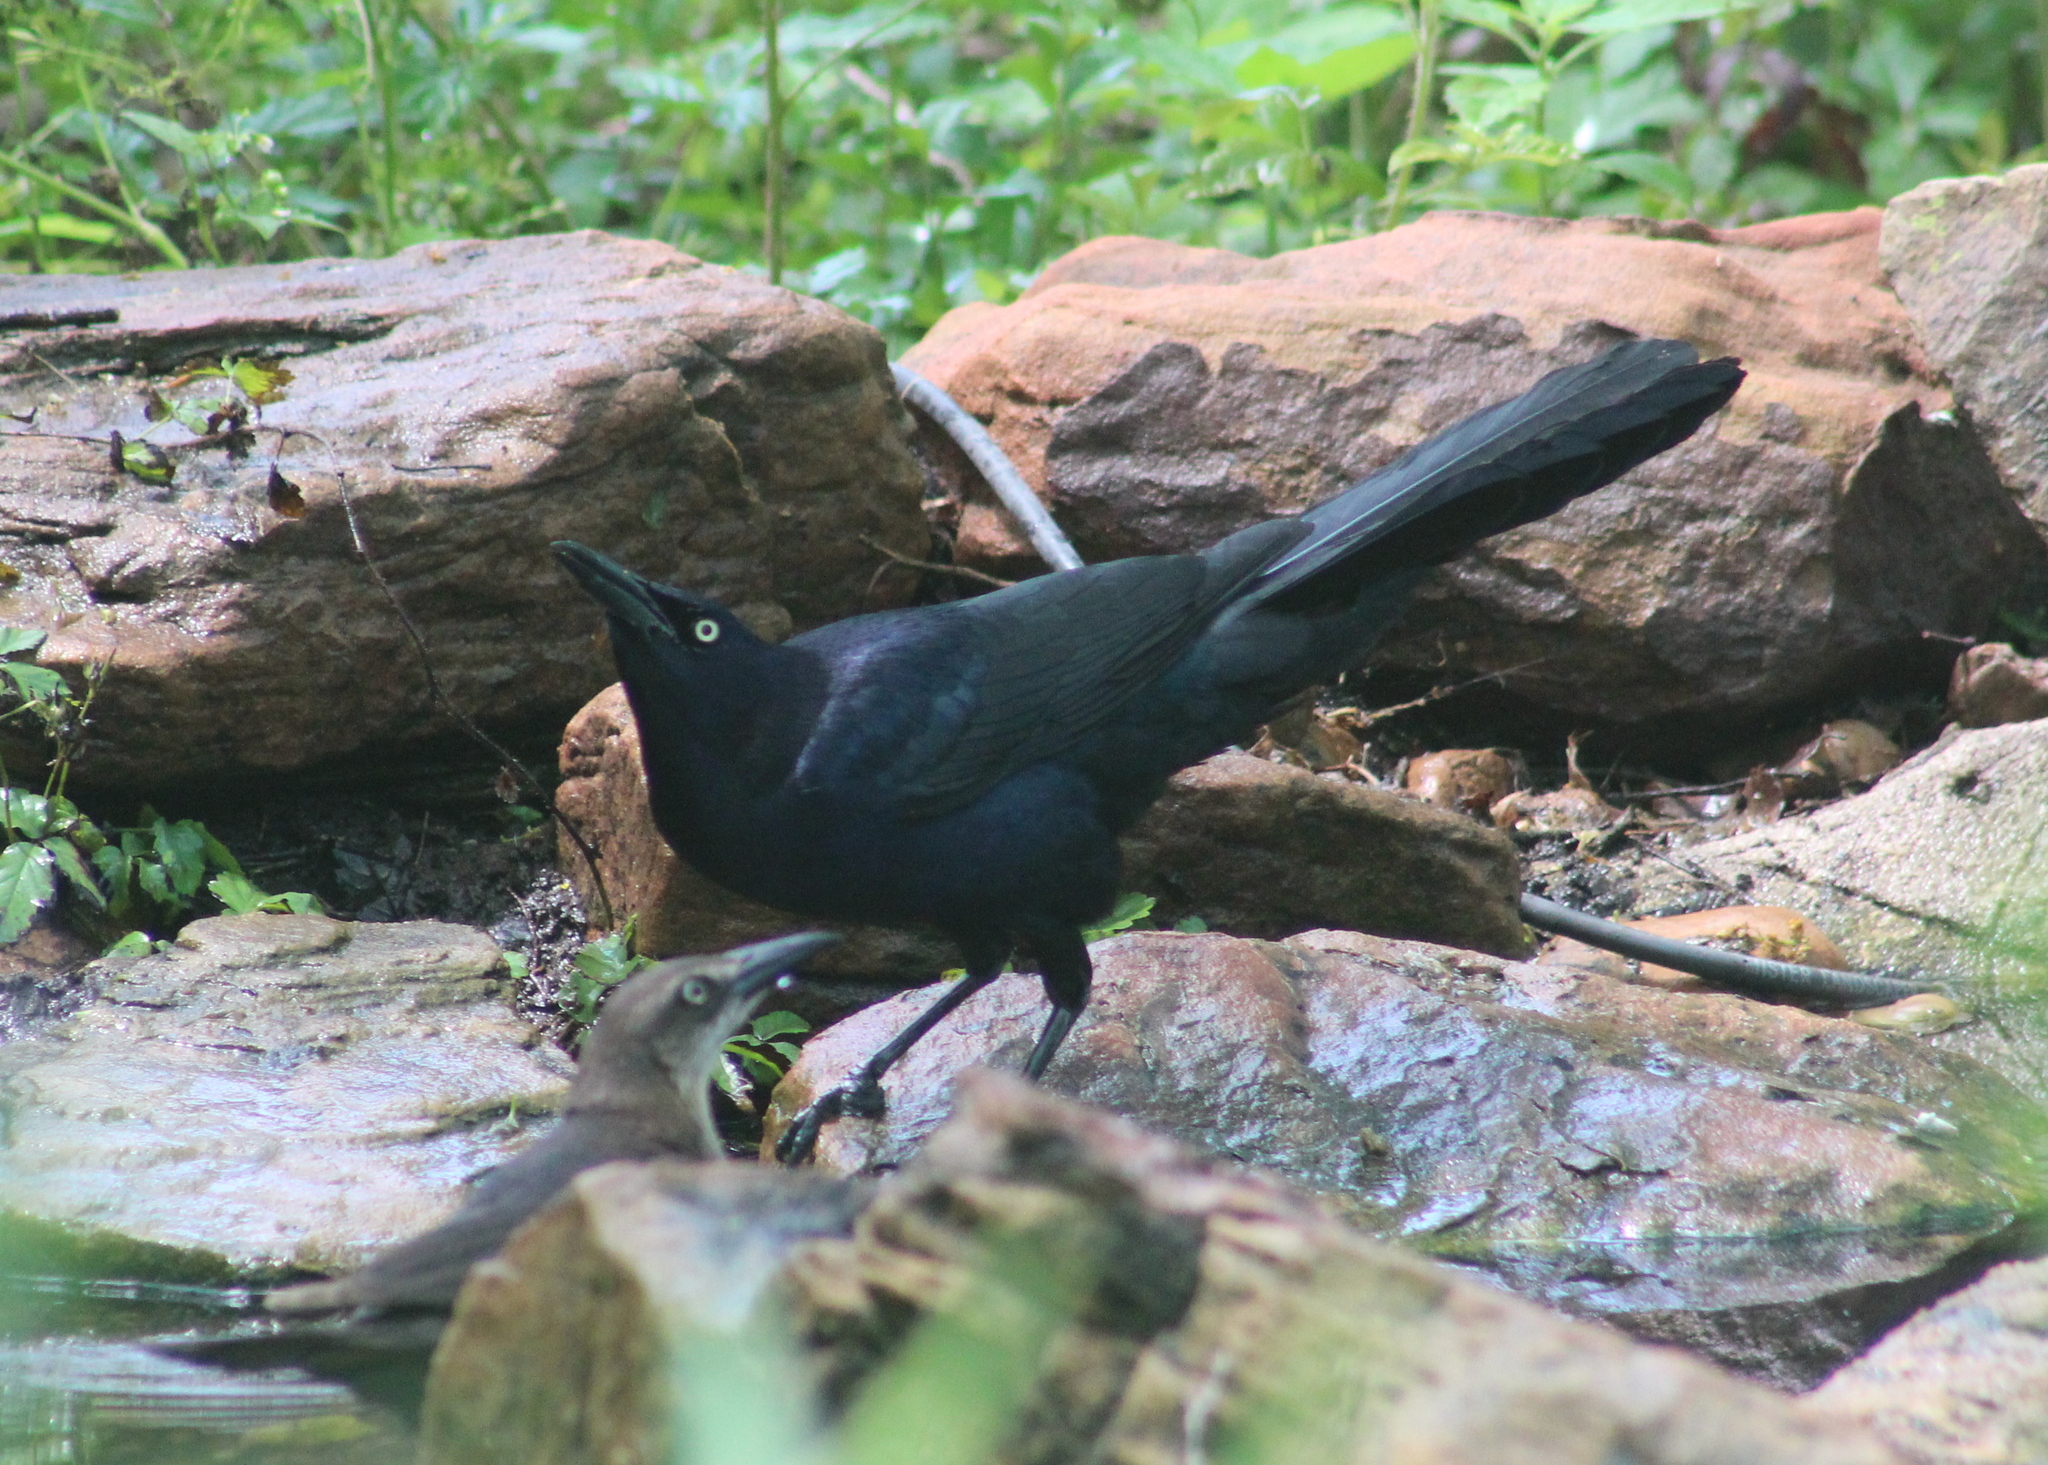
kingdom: Animalia
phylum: Chordata
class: Aves
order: Passeriformes
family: Icteridae
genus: Quiscalus
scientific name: Quiscalus mexicanus
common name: Great-tailed grackle
